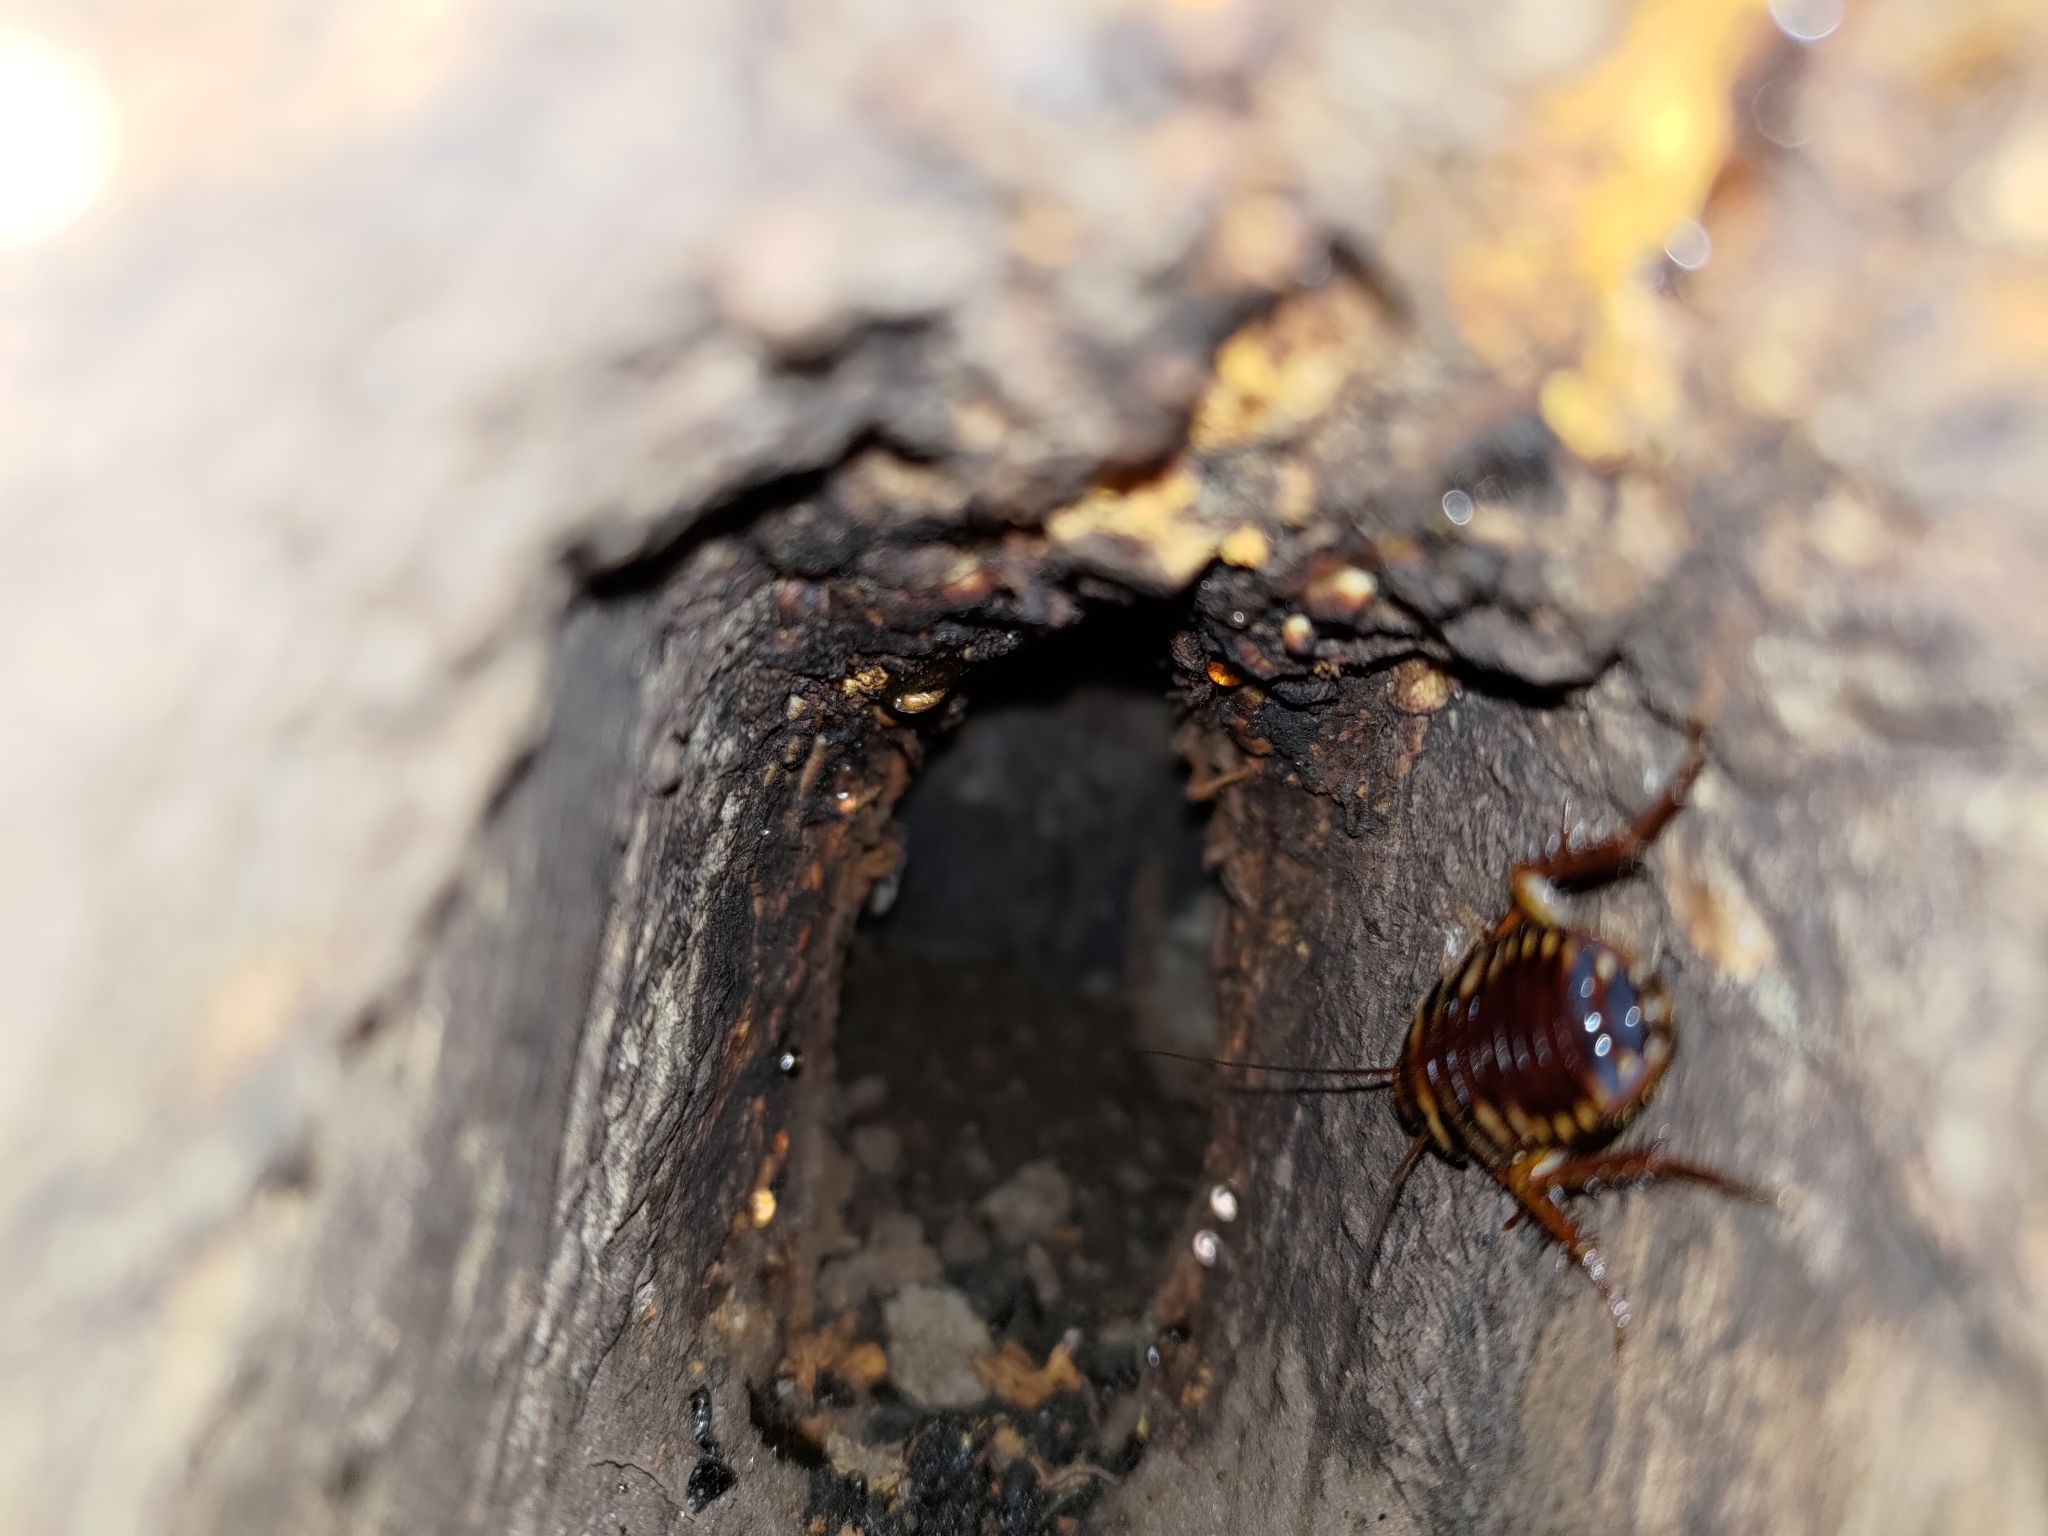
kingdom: Animalia
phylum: Arthropoda
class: Insecta
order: Blattodea
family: Blattidae
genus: Periplaneta
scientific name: Periplaneta australasiae
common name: Australian cockroach
